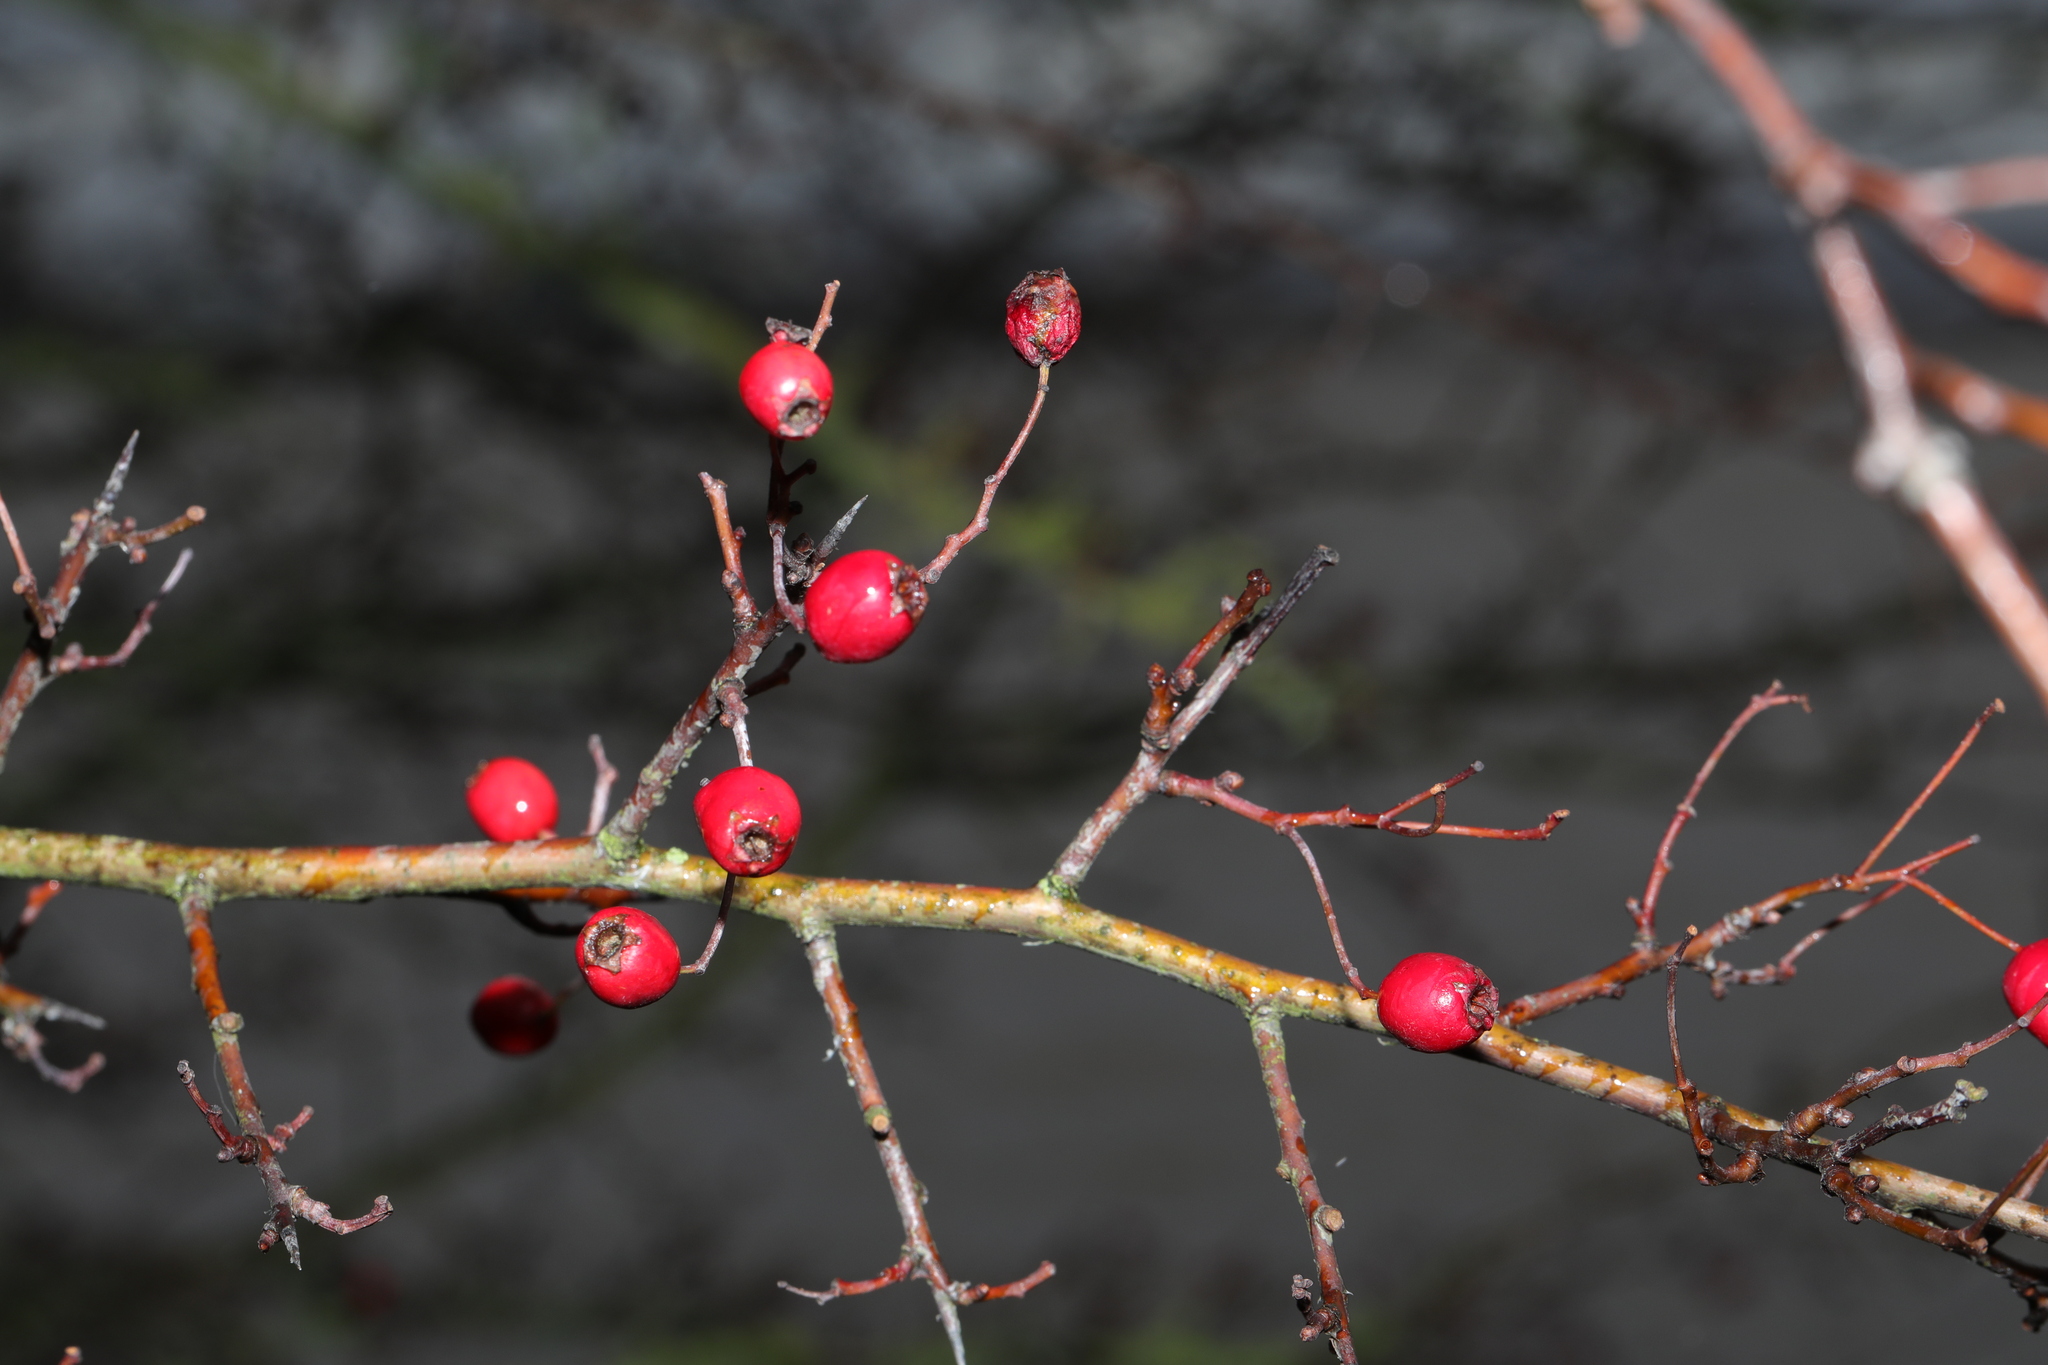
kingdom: Plantae
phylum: Tracheophyta
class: Magnoliopsida
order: Rosales
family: Rosaceae
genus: Crataegus
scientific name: Crataegus monogyna
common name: Hawthorn
